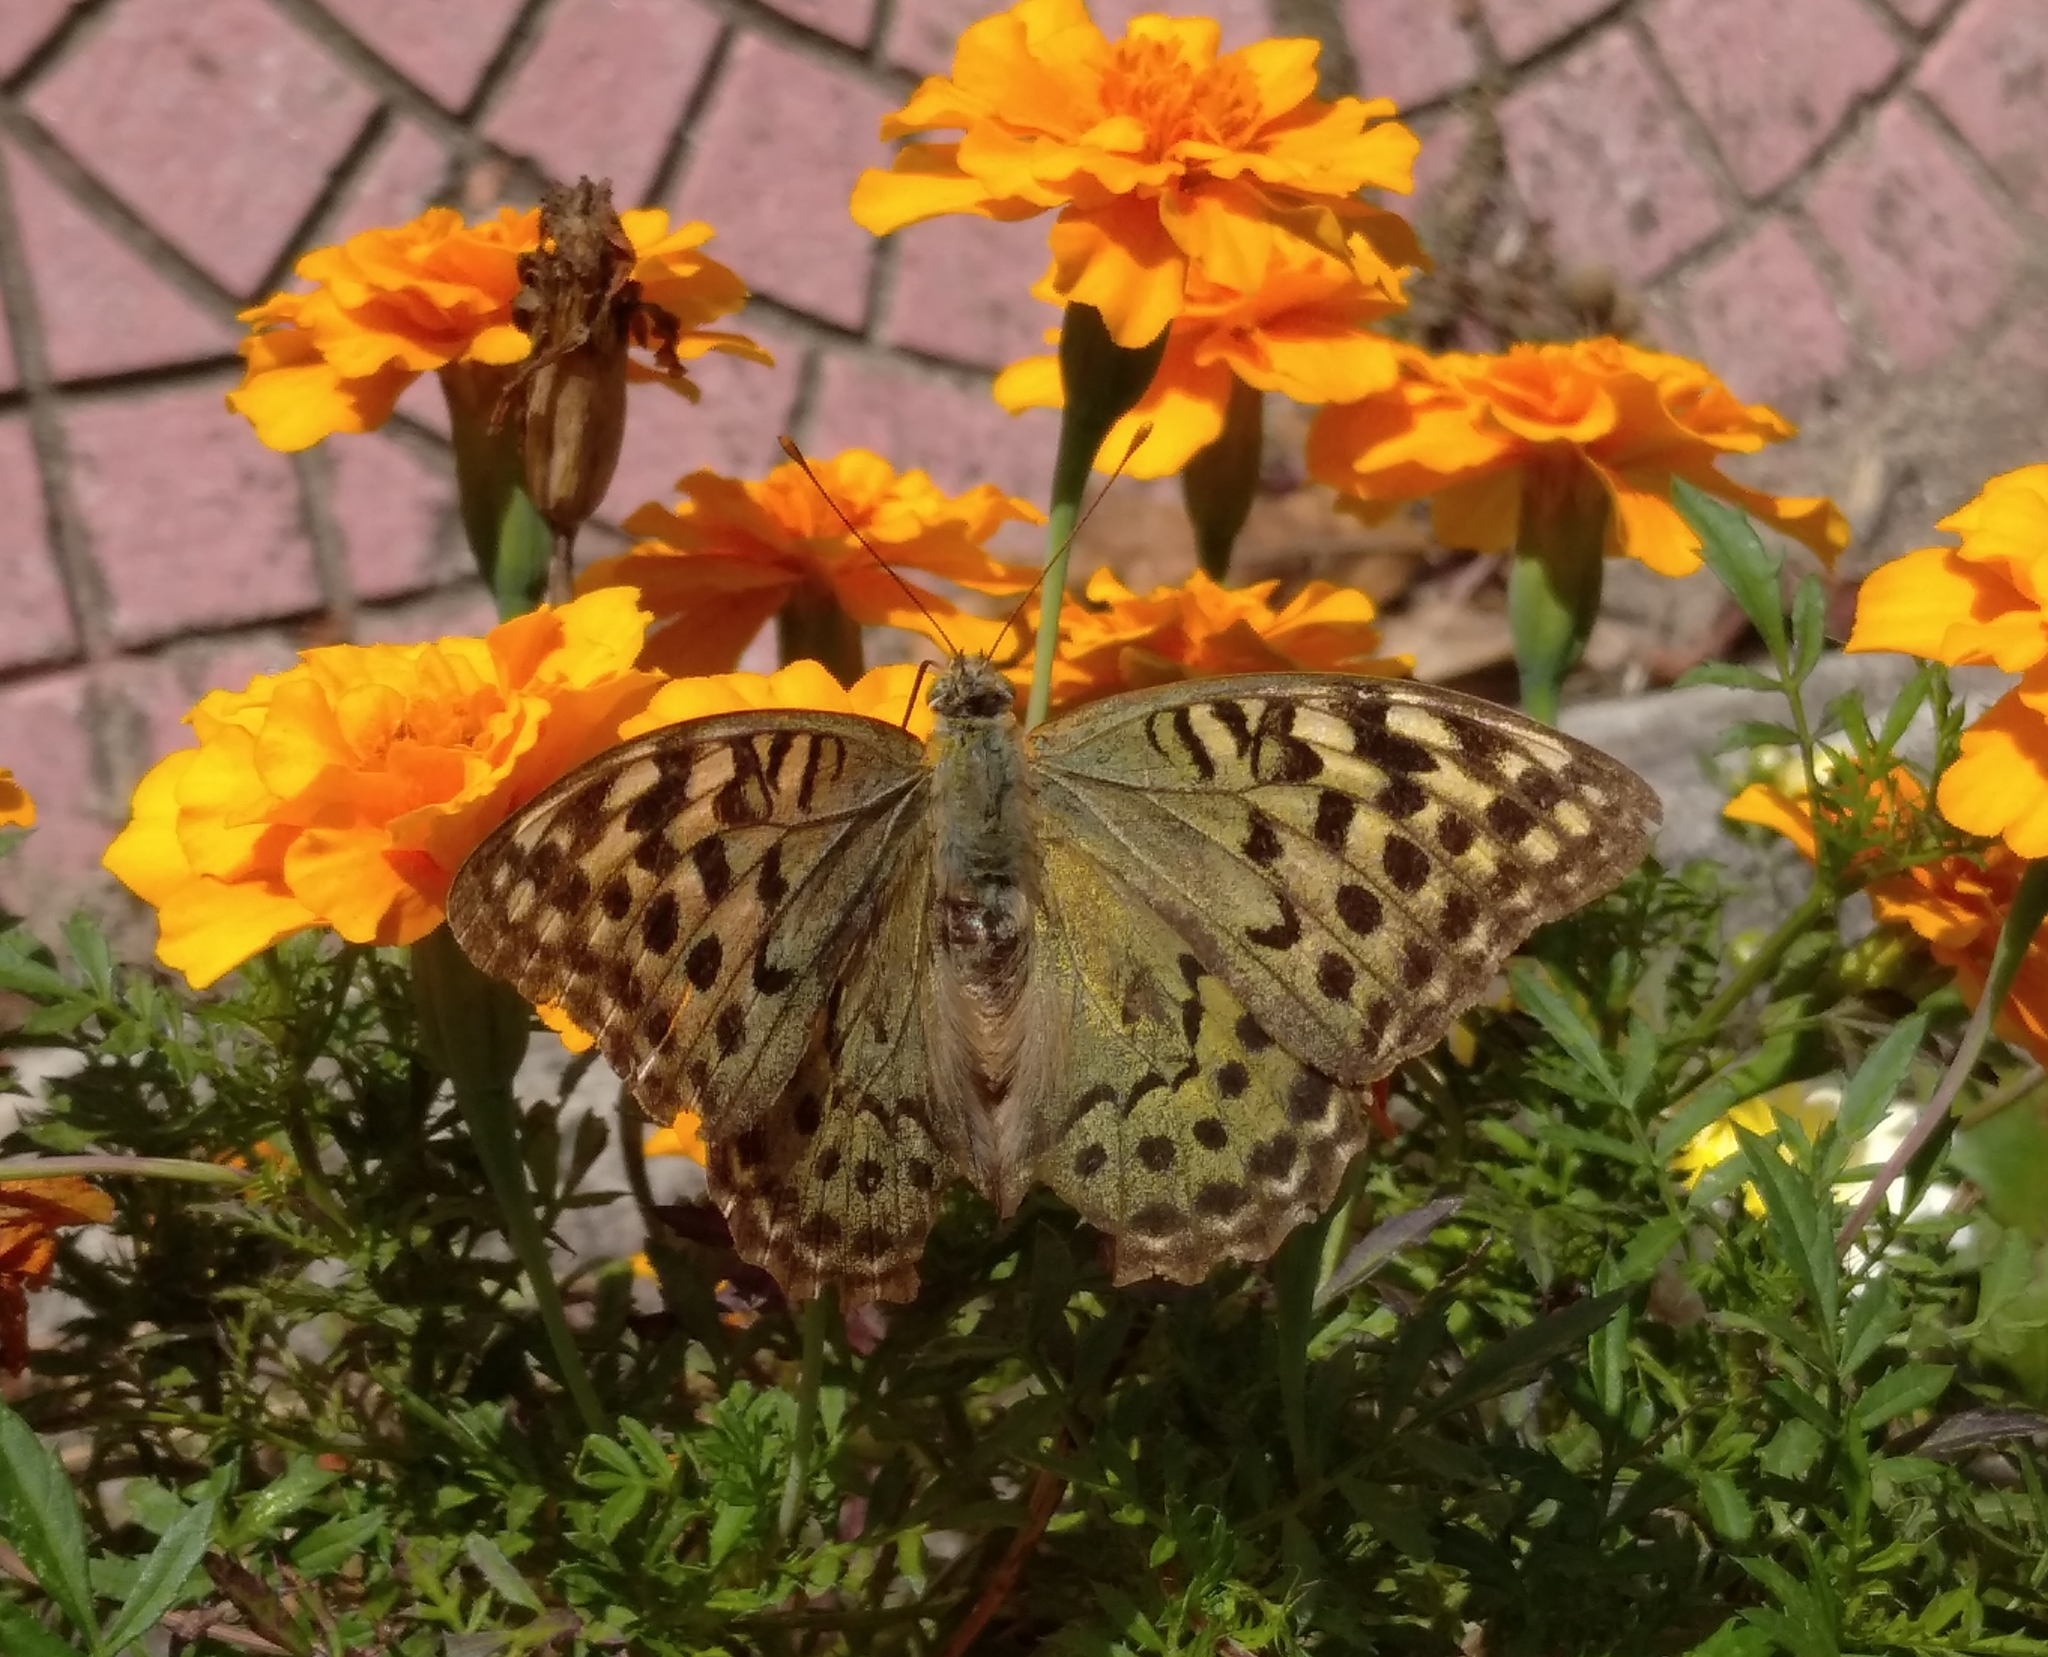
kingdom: Animalia
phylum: Arthropoda
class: Insecta
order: Lepidoptera
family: Nymphalidae
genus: Damora
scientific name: Damora pandora
